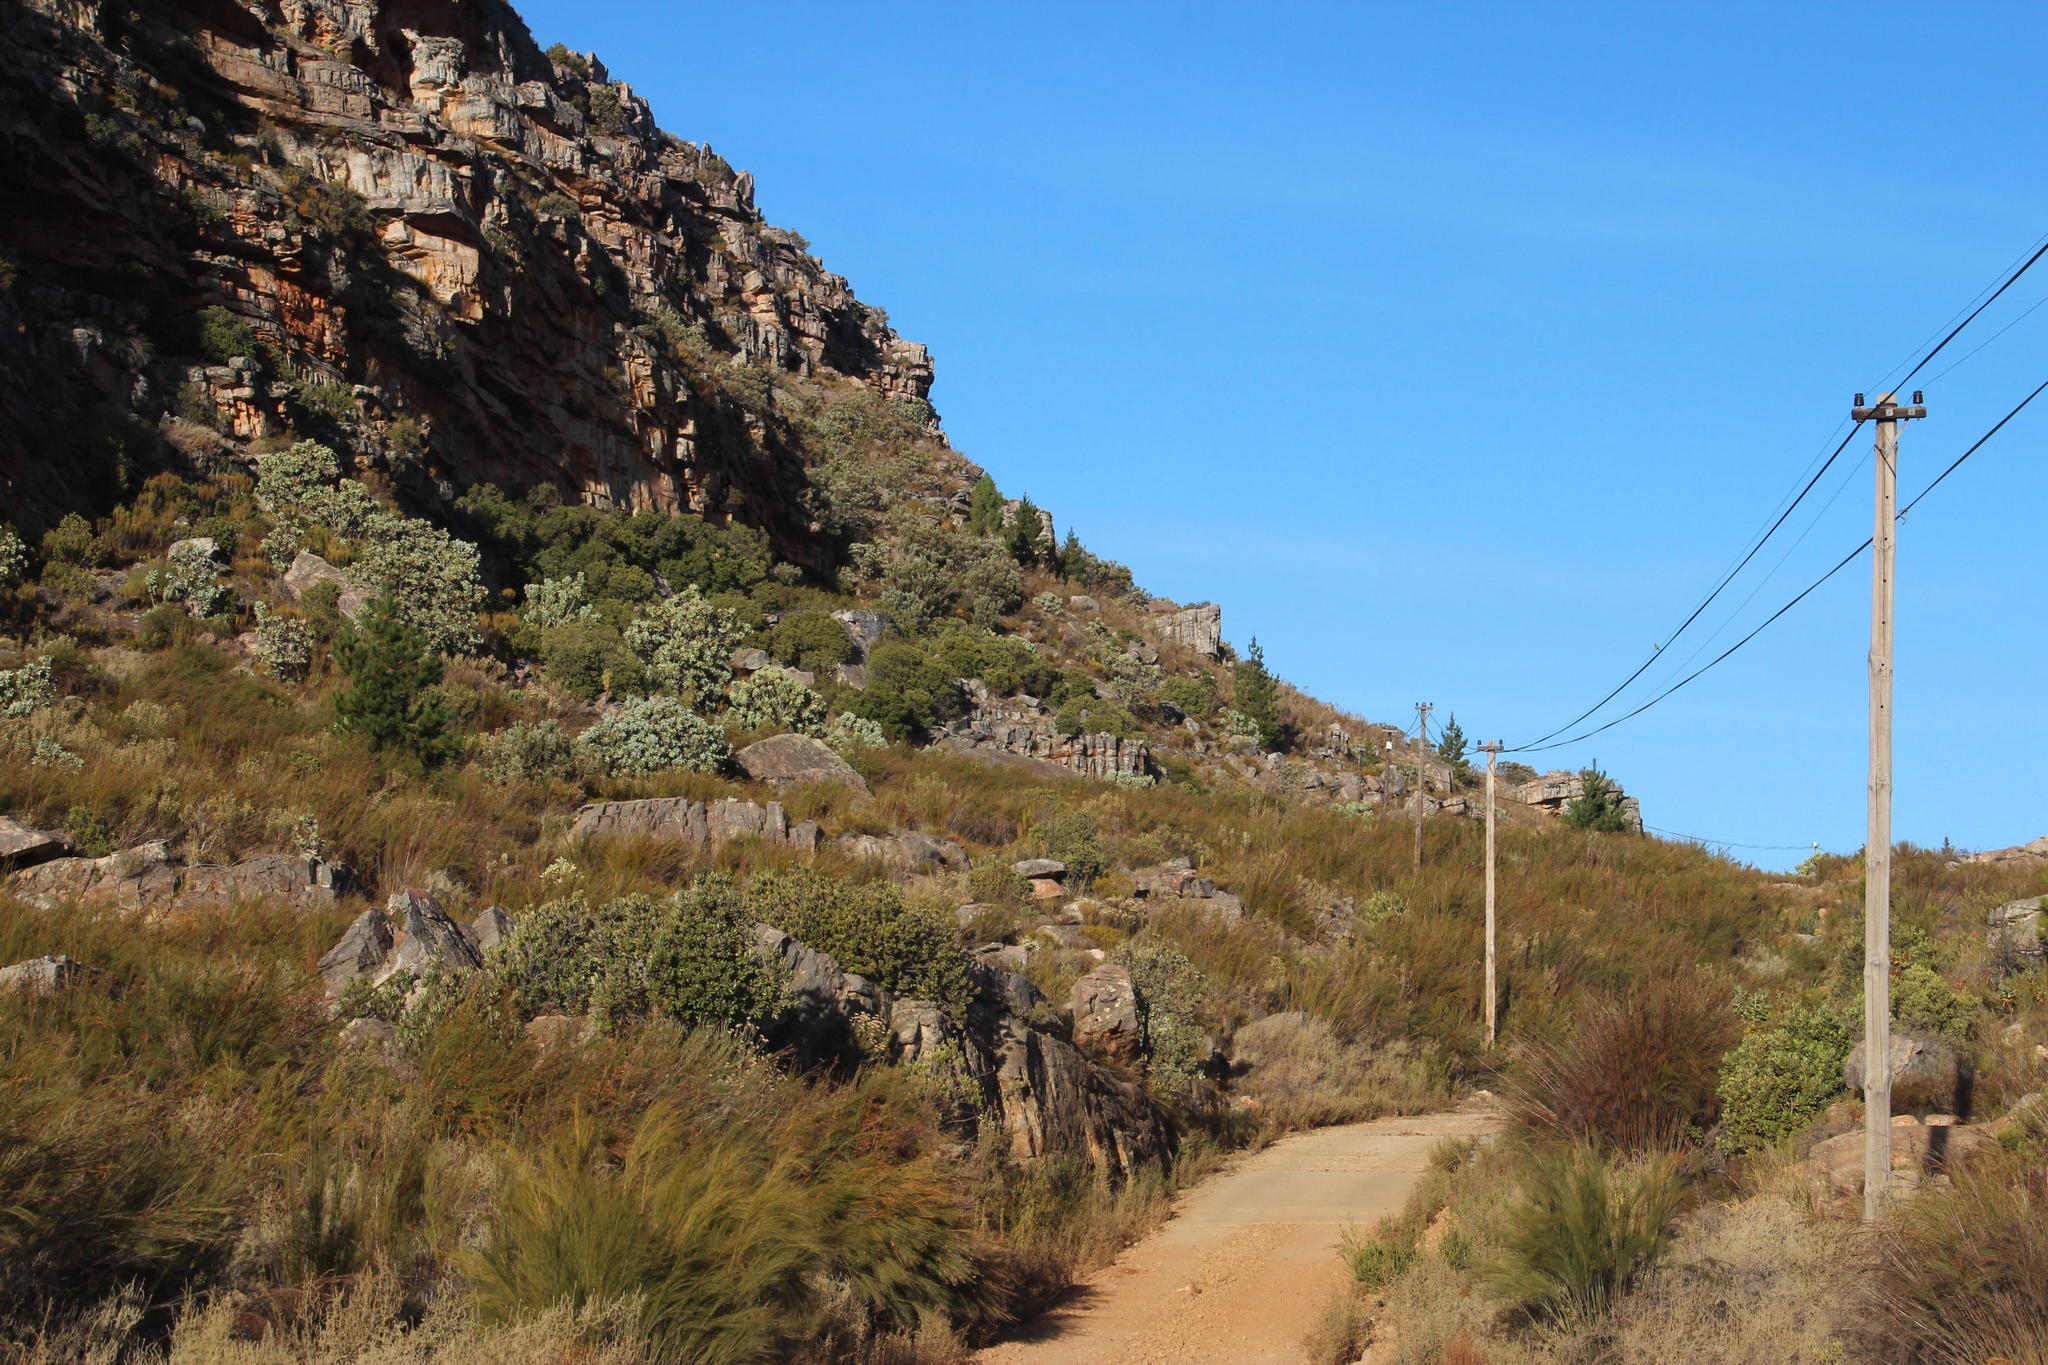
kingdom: Plantae
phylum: Tracheophyta
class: Pinopsida
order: Pinales
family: Pinaceae
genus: Pinus
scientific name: Pinus pinaster
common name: Maritime pine
